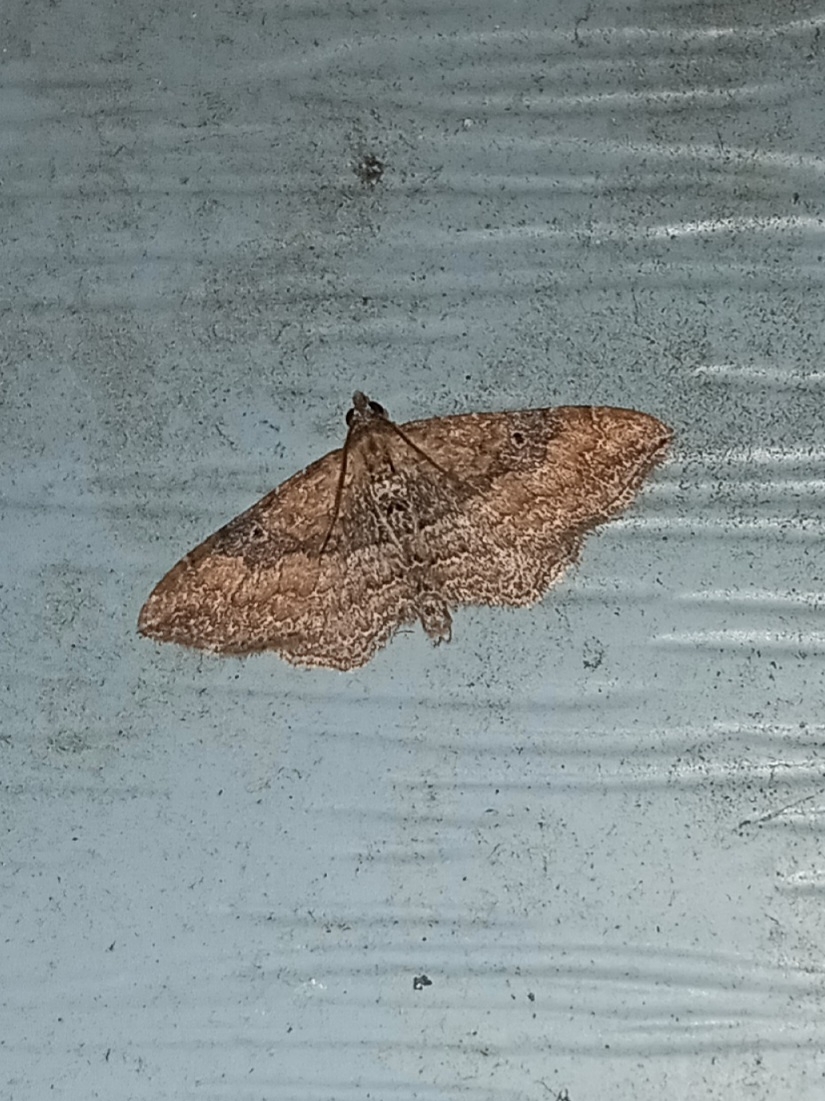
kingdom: Animalia
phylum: Arthropoda
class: Insecta
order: Lepidoptera
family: Geometridae
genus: Orthonama
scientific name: Orthonama obstipata
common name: The gem
